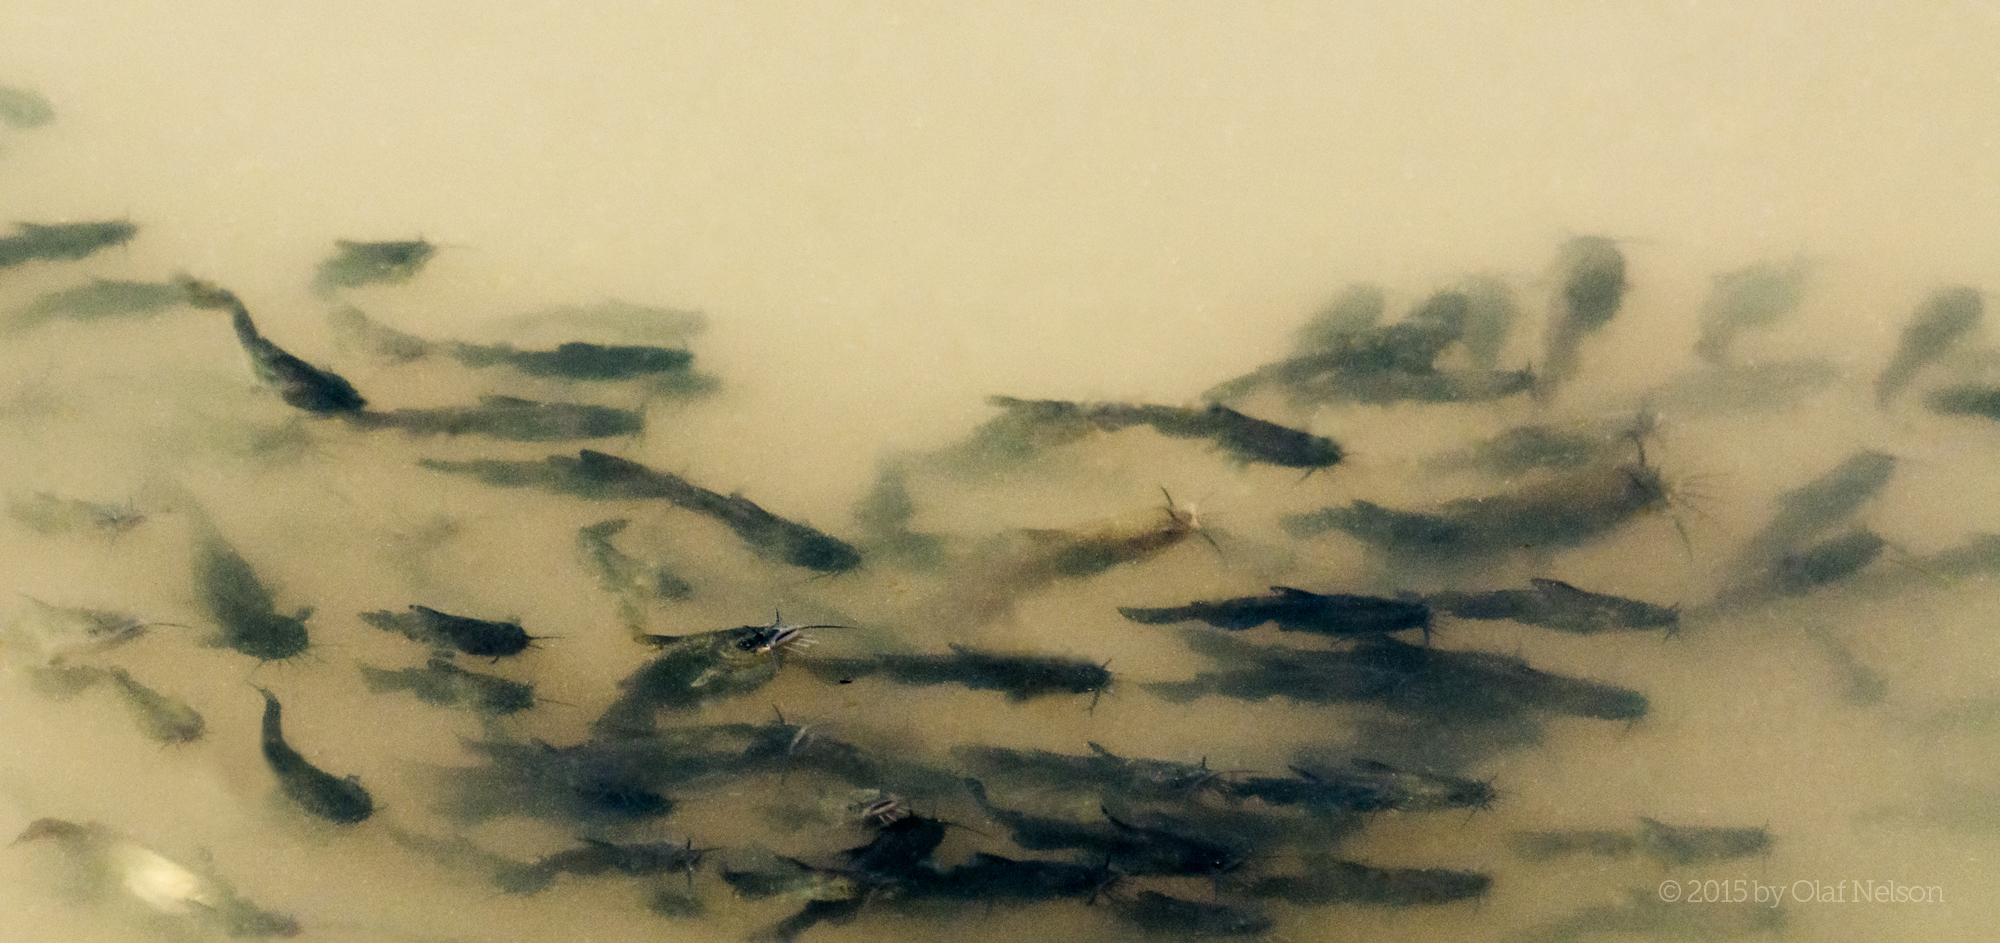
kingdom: Animalia
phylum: Chordata
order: Siluriformes
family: Ictaluridae
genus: Ameiurus
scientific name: Ameiurus melas
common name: Black bullhead
